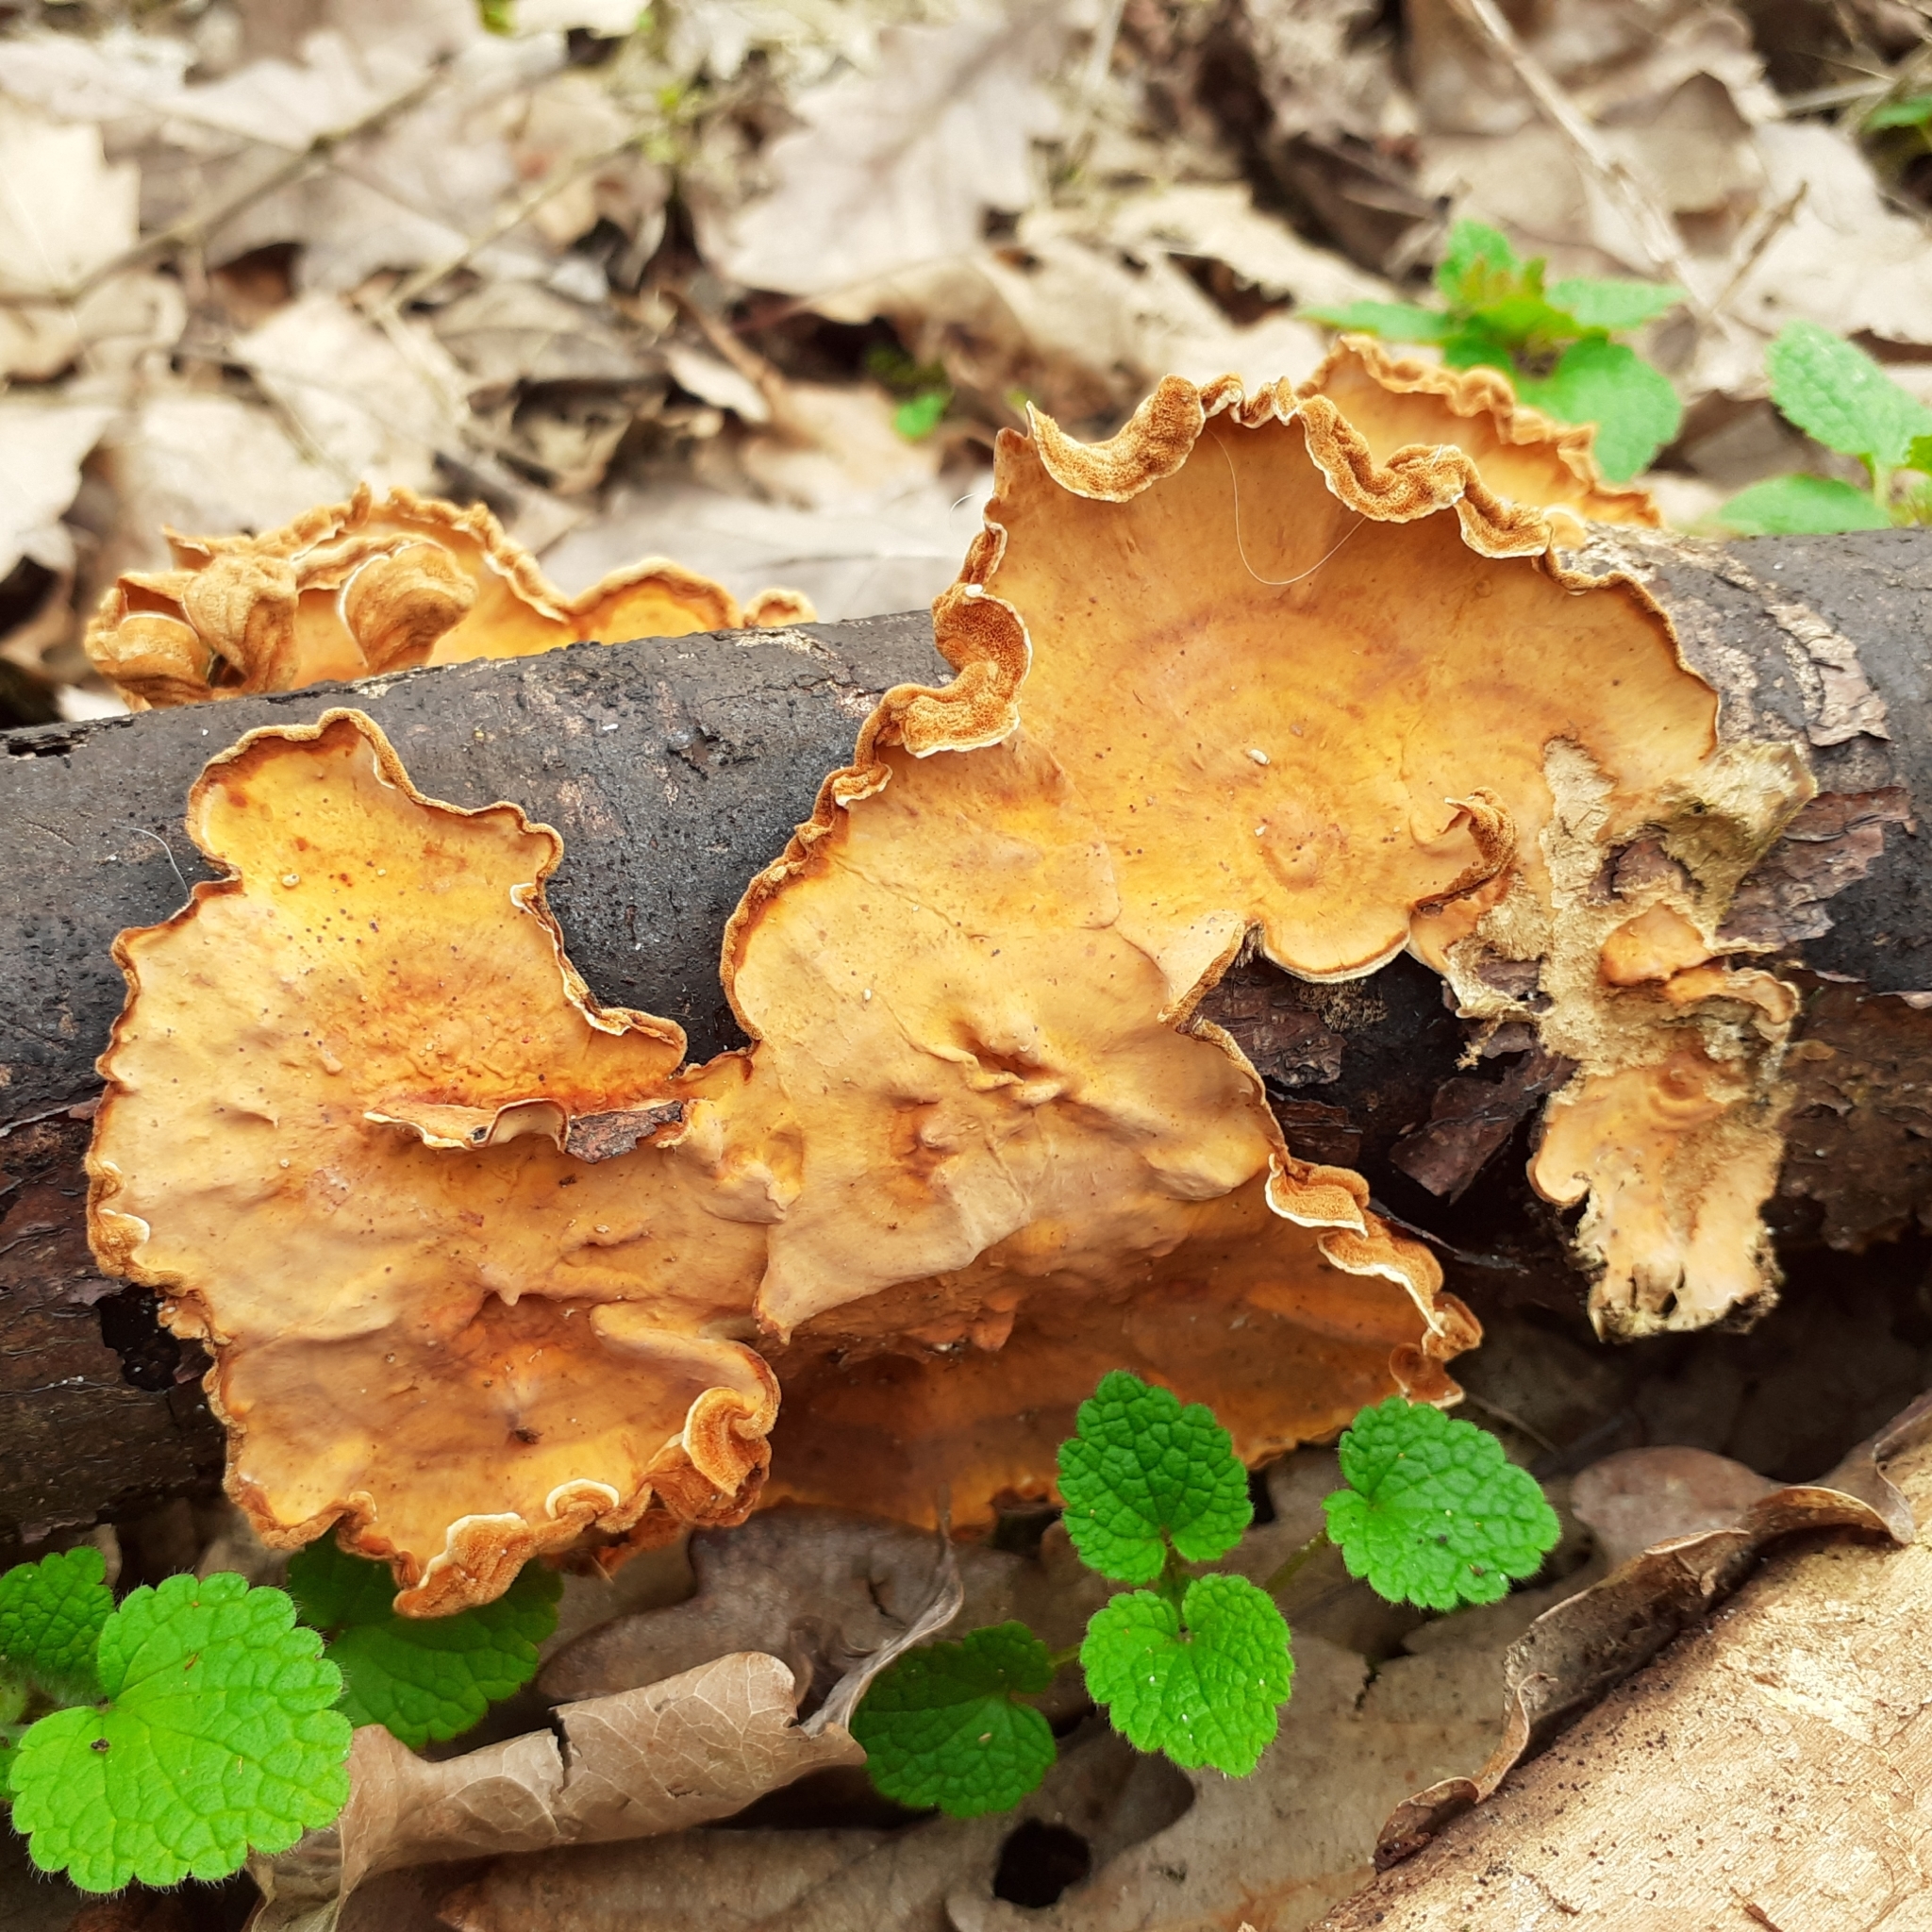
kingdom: Fungi
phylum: Basidiomycota
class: Agaricomycetes
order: Russulales
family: Stereaceae
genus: Stereum
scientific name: Stereum hirsutum
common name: Hairy curtain crust
